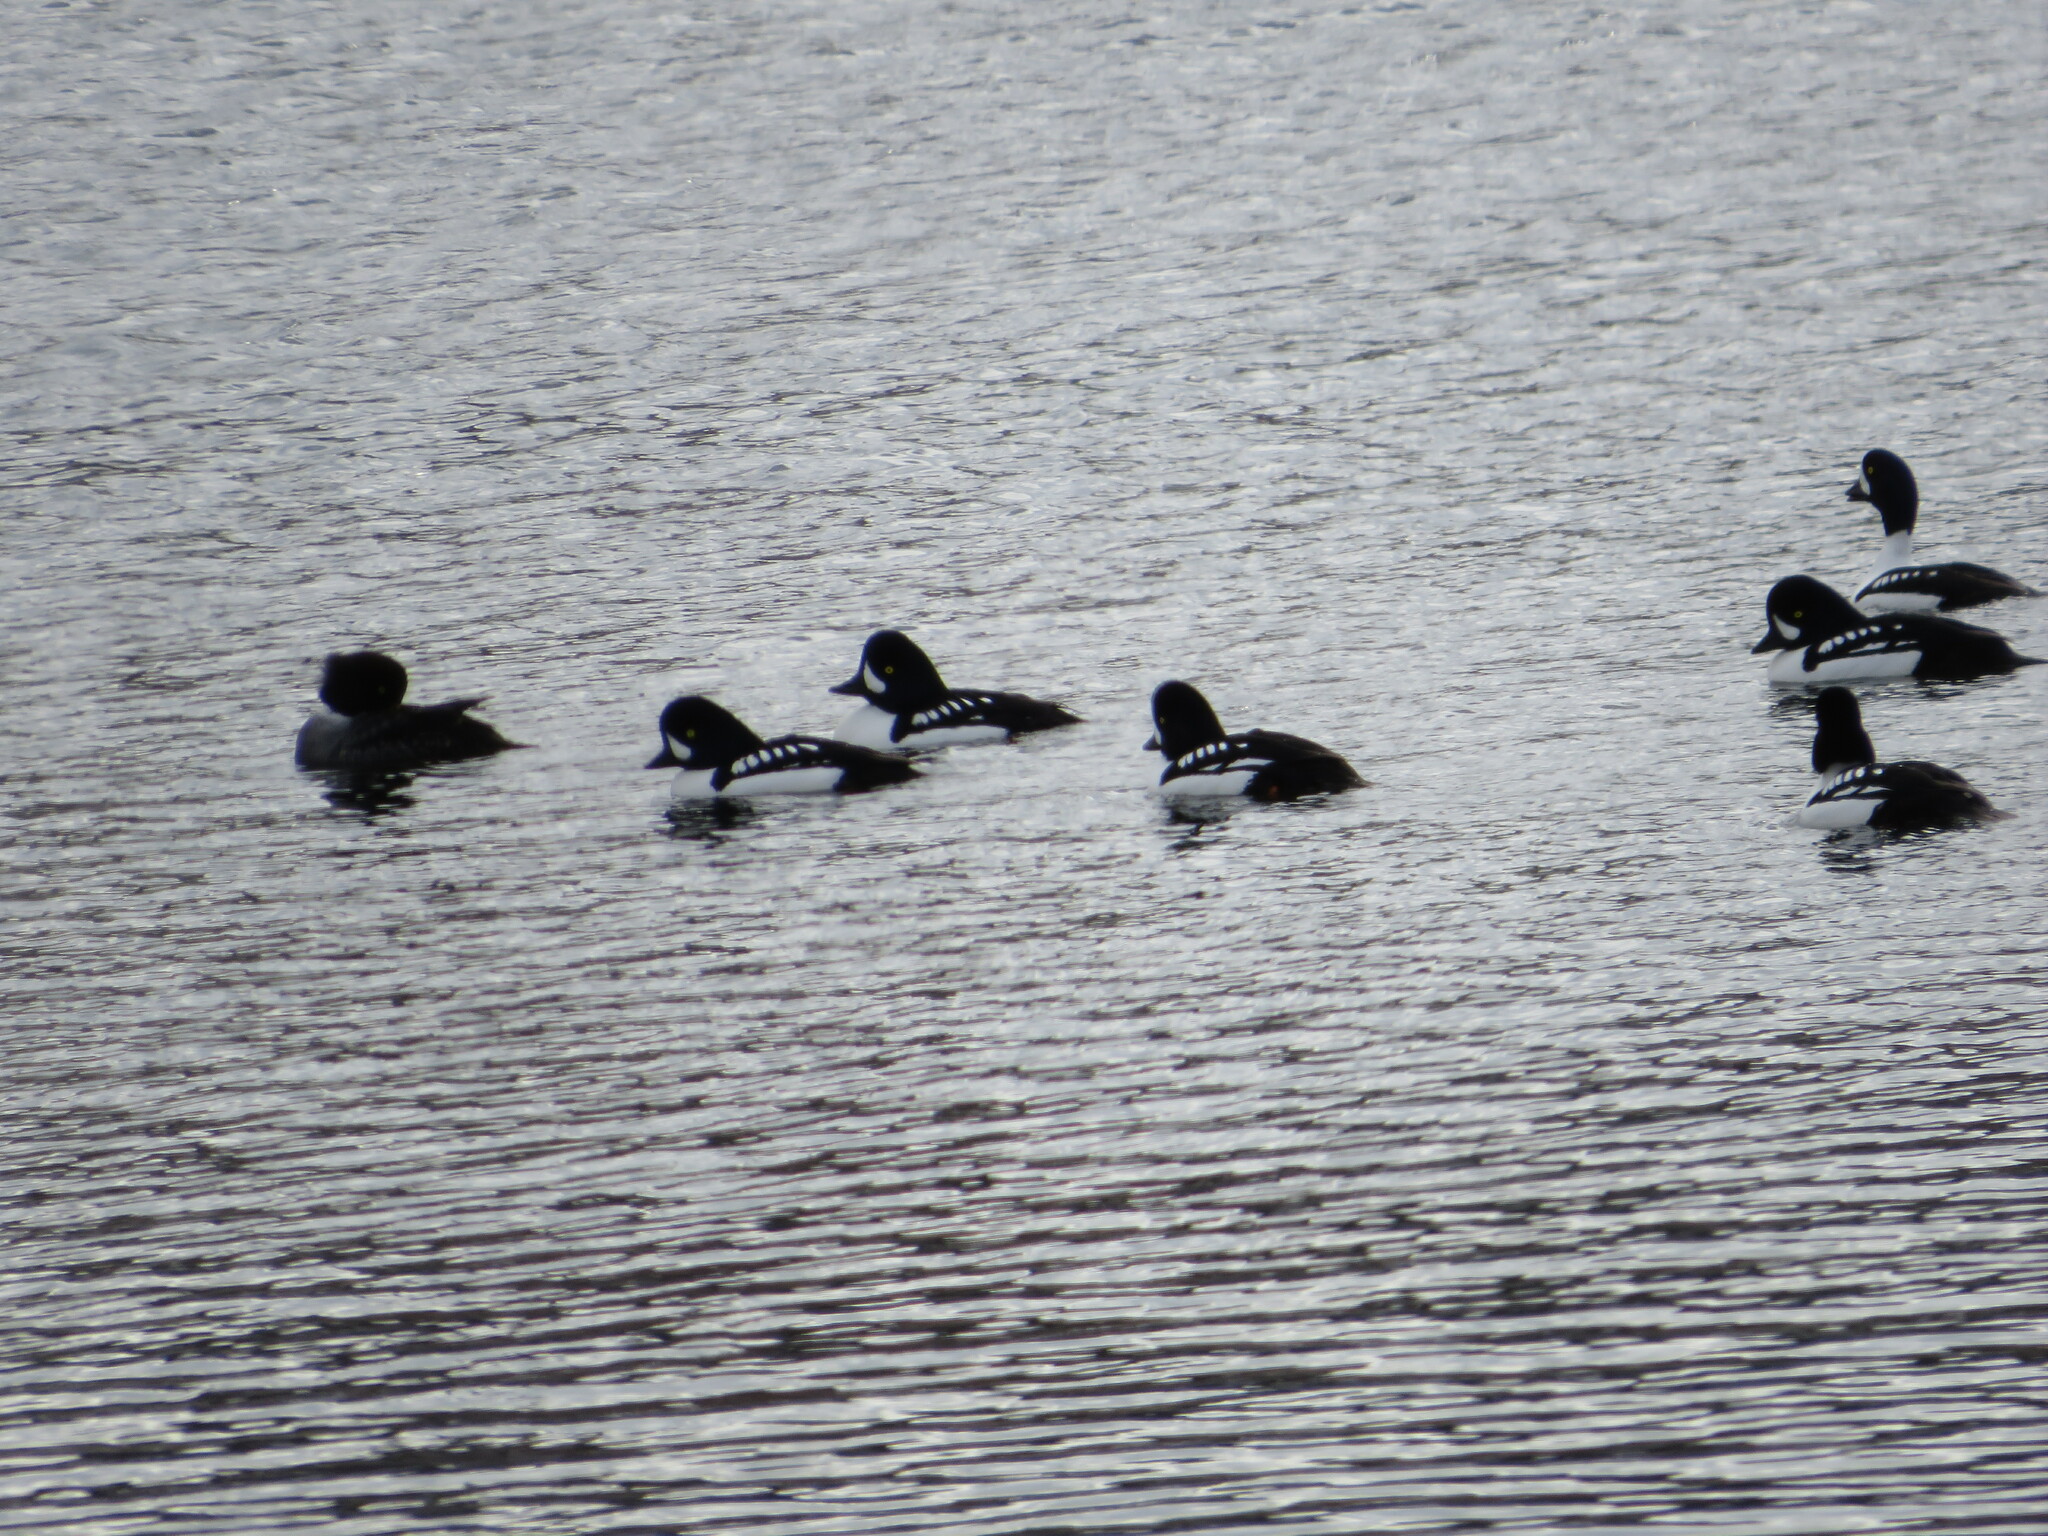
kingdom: Animalia
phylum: Chordata
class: Aves
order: Anseriformes
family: Anatidae
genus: Bucephala
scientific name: Bucephala islandica
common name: Barrow's goldeneye
